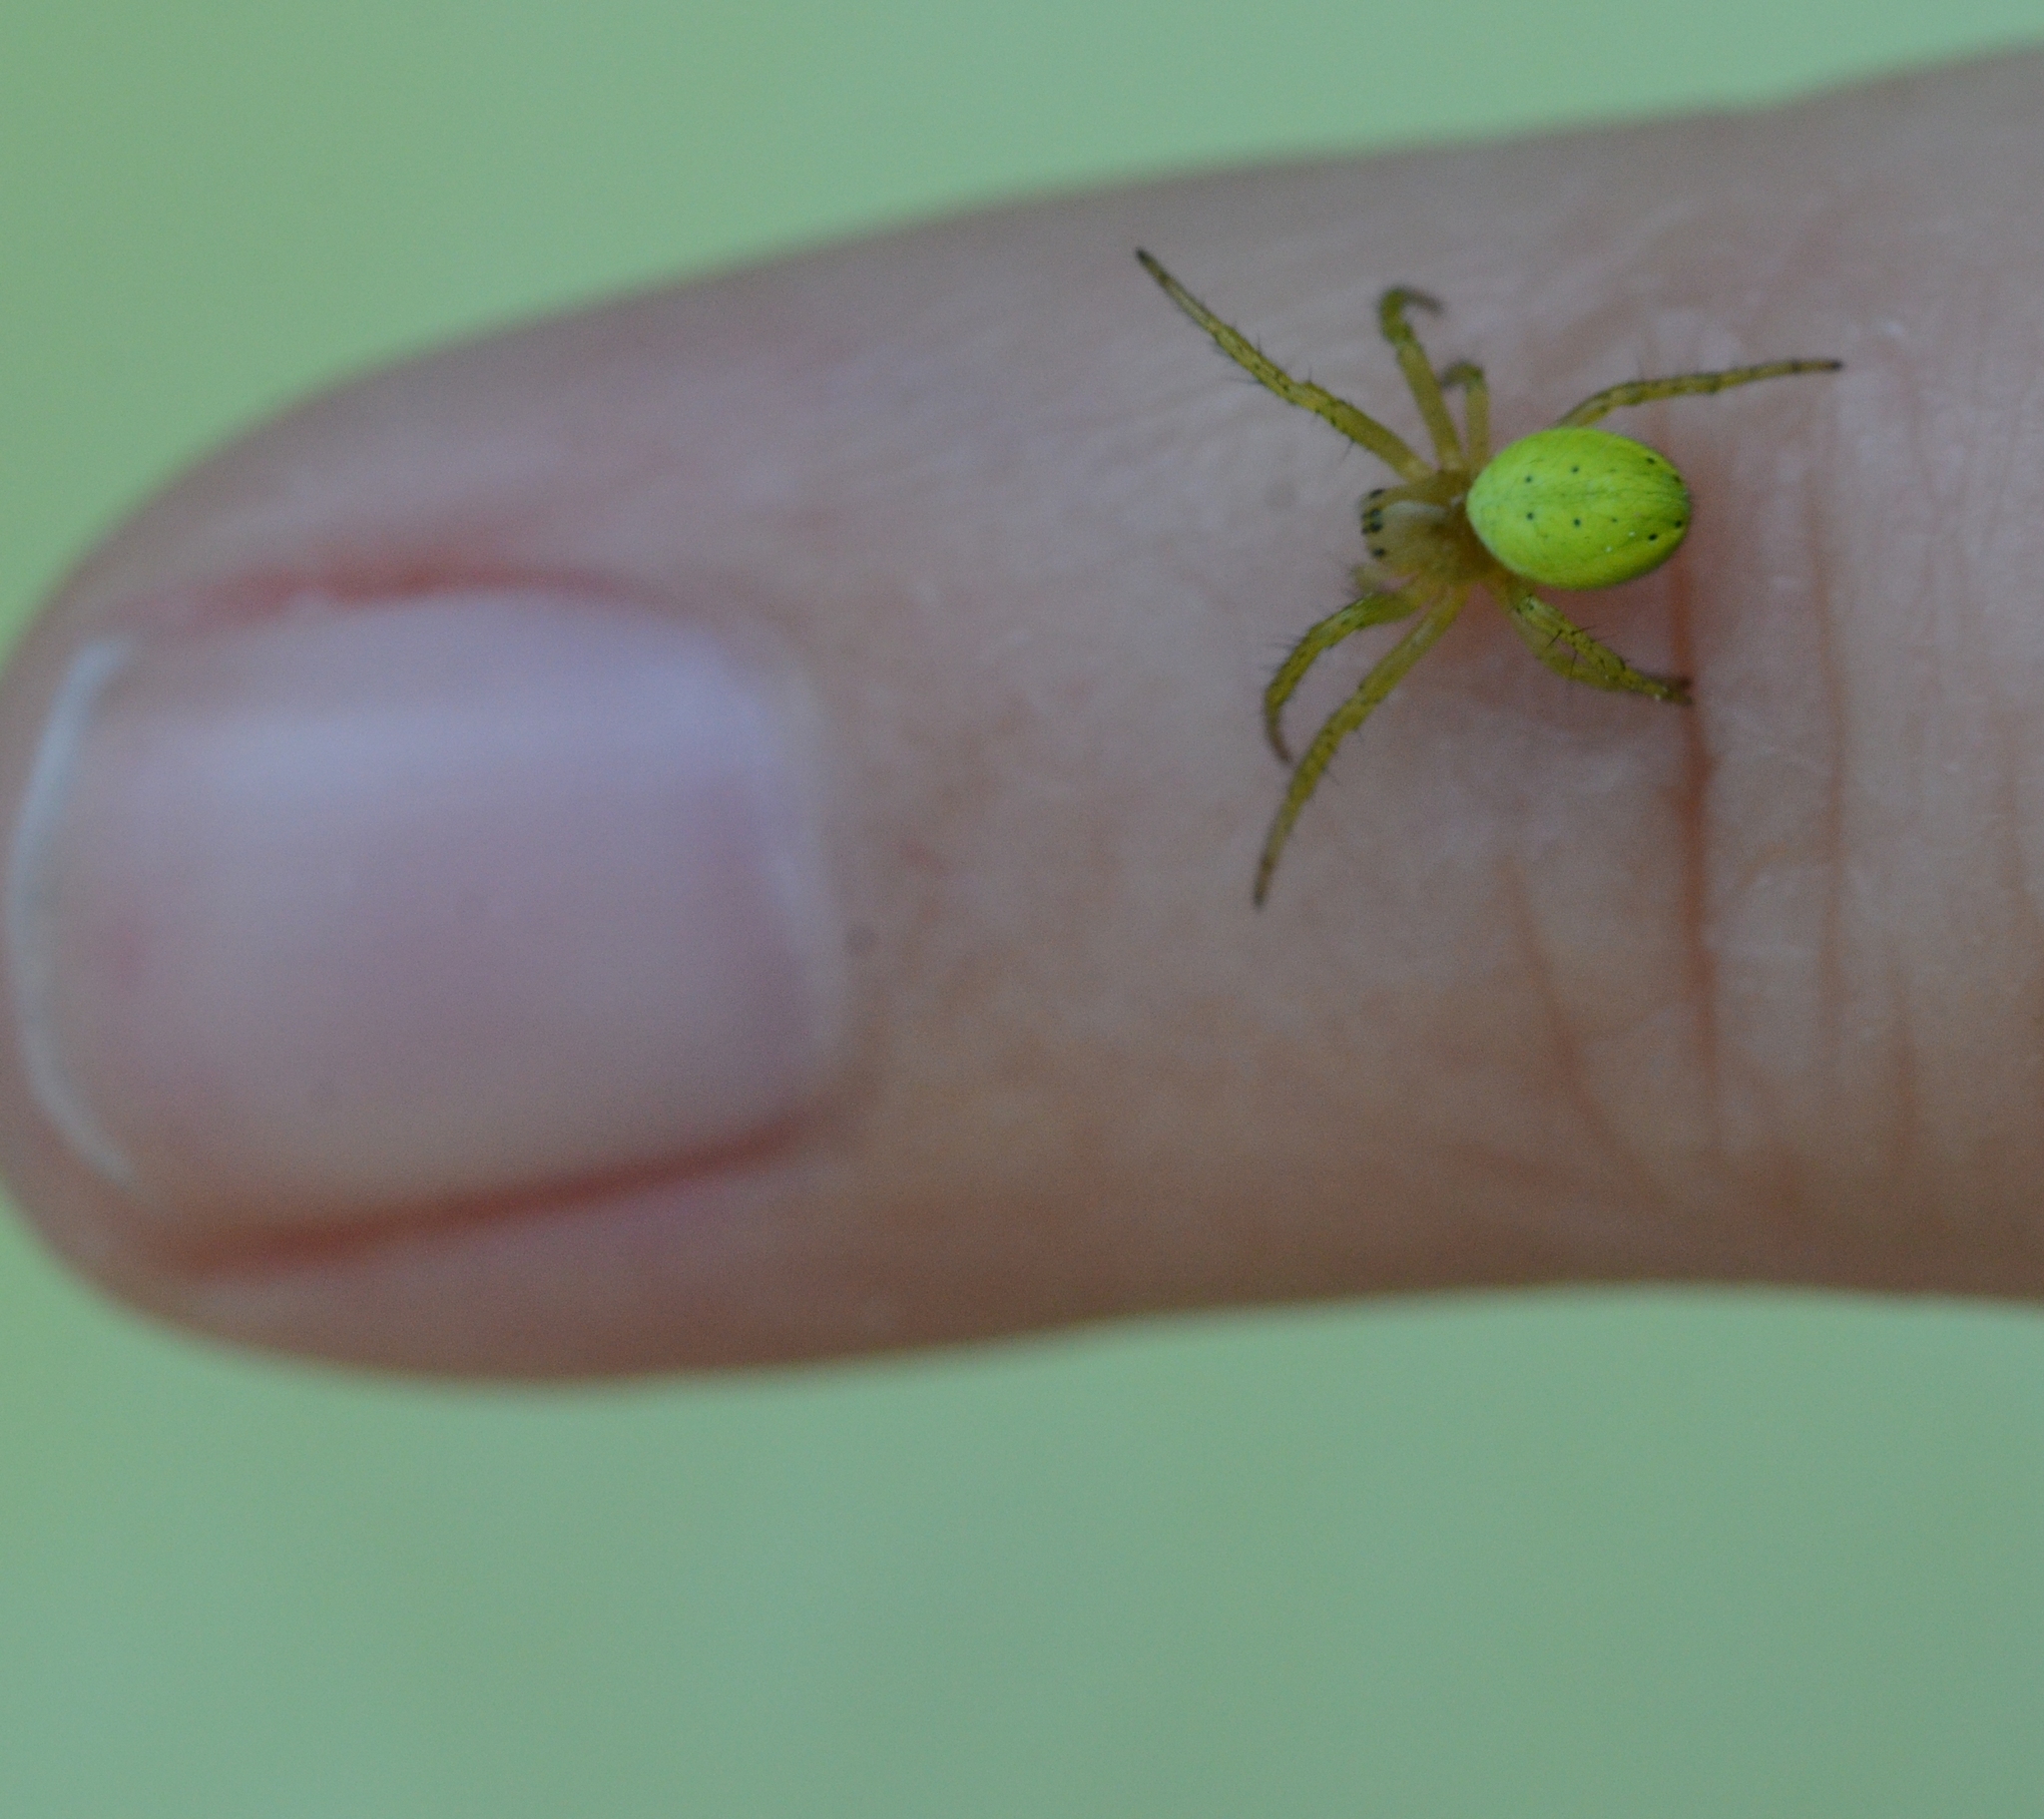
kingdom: Animalia
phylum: Arthropoda
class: Arachnida
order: Araneae
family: Araneidae
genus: Araniella
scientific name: Araniella
